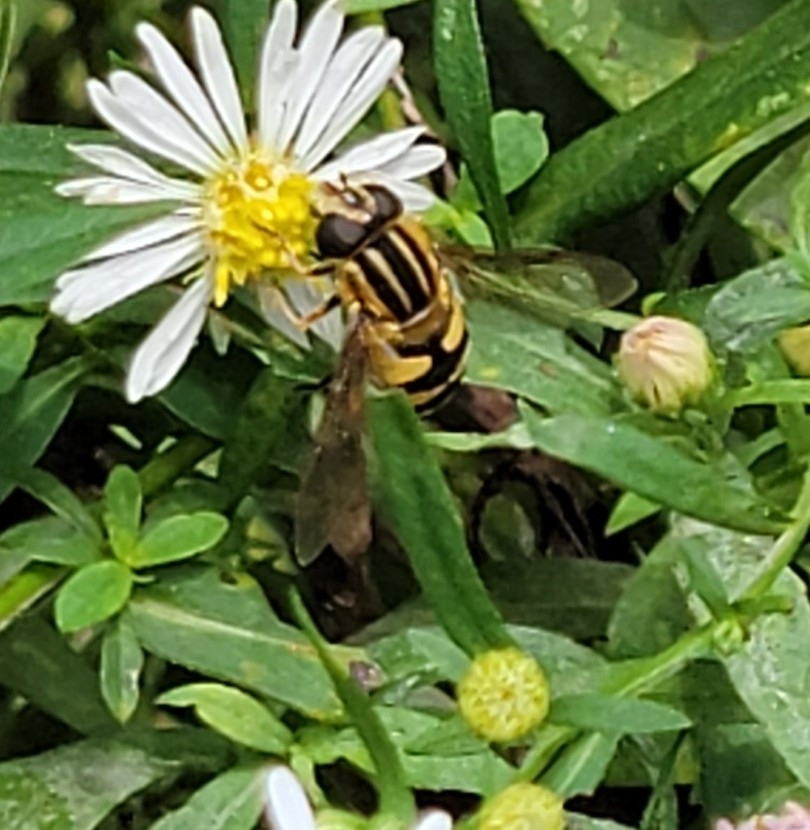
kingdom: Animalia
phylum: Arthropoda
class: Insecta
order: Diptera
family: Syrphidae
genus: Helophilus
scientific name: Helophilus fasciatus
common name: Narrow-headed marsh fly
